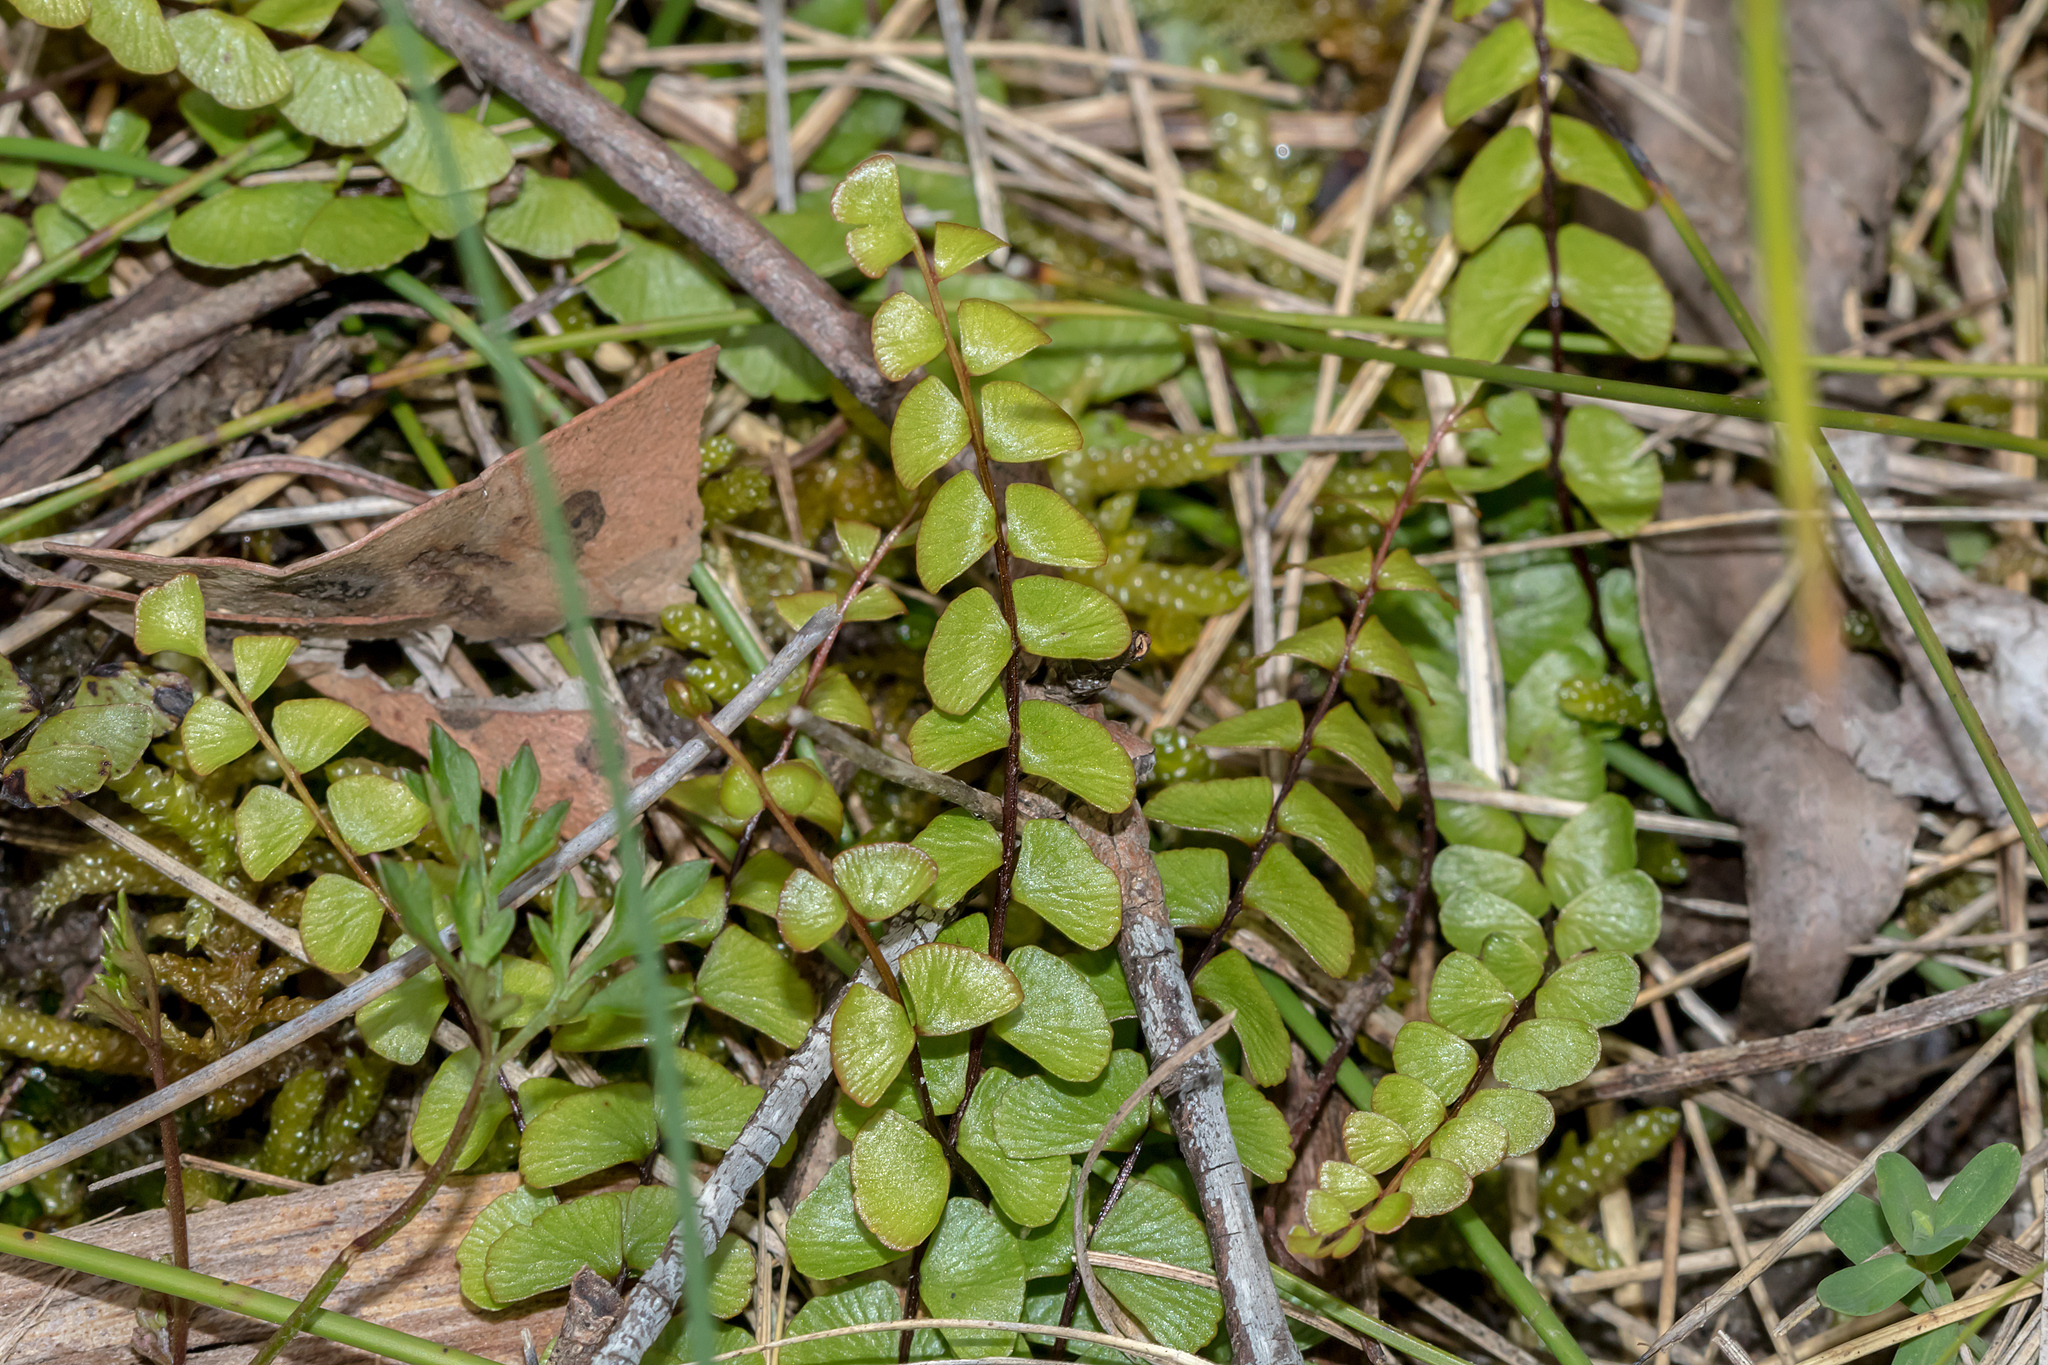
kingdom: Plantae
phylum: Tracheophyta
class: Polypodiopsida
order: Polypodiales
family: Lindsaeaceae
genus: Lindsaea
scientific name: Lindsaea linearis
